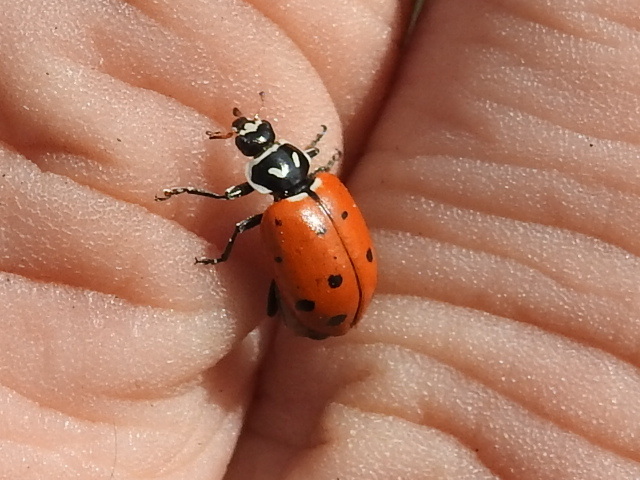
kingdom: Animalia
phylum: Arthropoda
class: Insecta
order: Coleoptera
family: Coccinellidae
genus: Hippodamia
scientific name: Hippodamia convergens
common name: Convergent lady beetle
